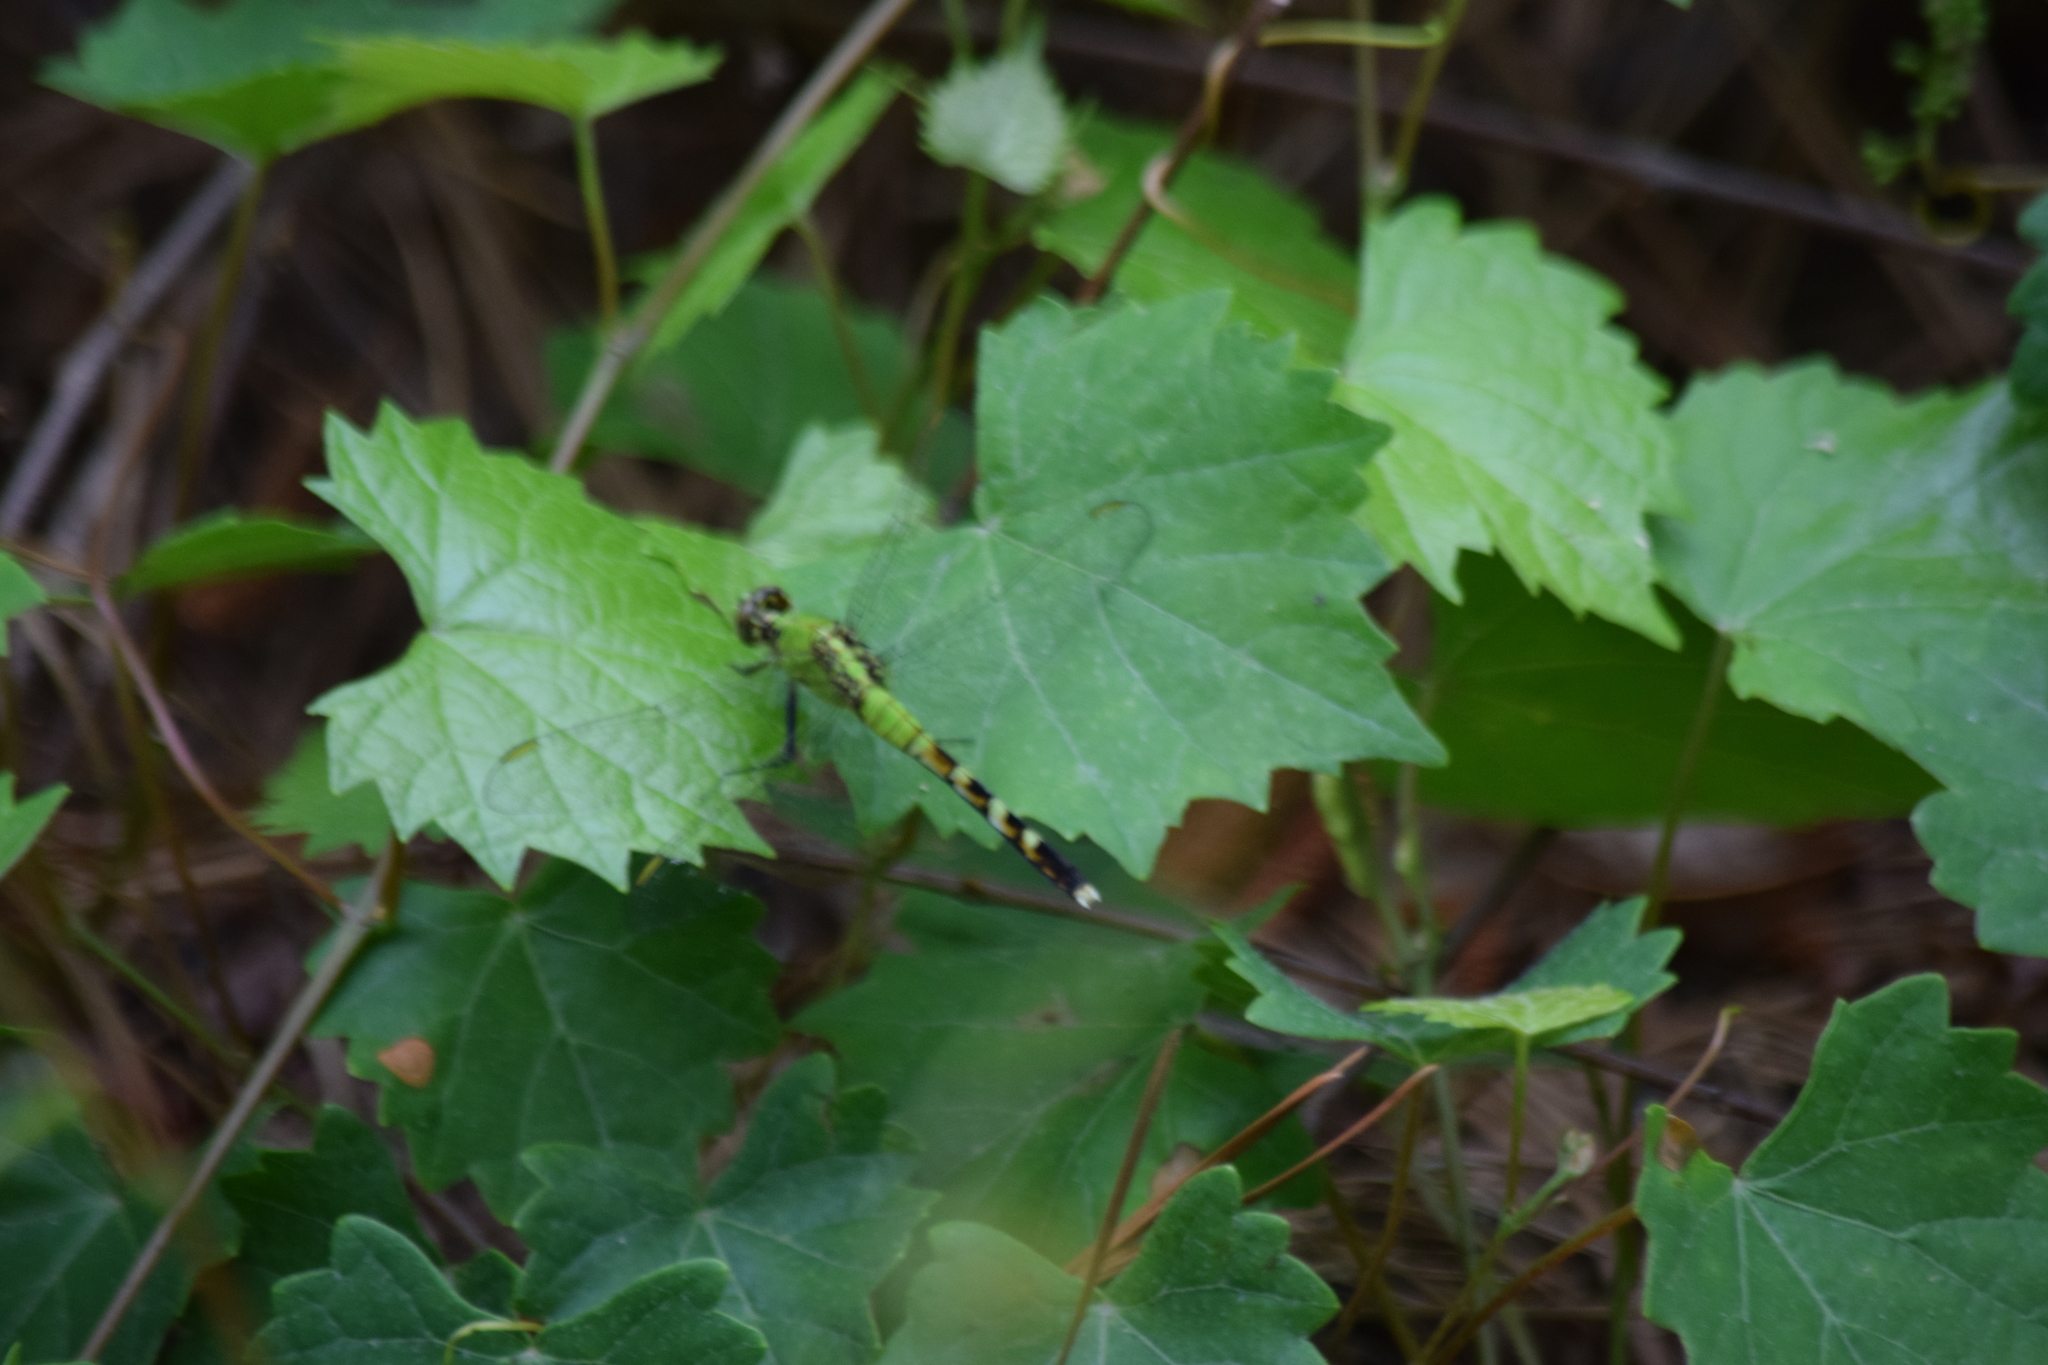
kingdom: Animalia
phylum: Arthropoda
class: Insecta
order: Odonata
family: Libellulidae
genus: Erythemis
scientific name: Erythemis simplicicollis
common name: Eastern pondhawk
